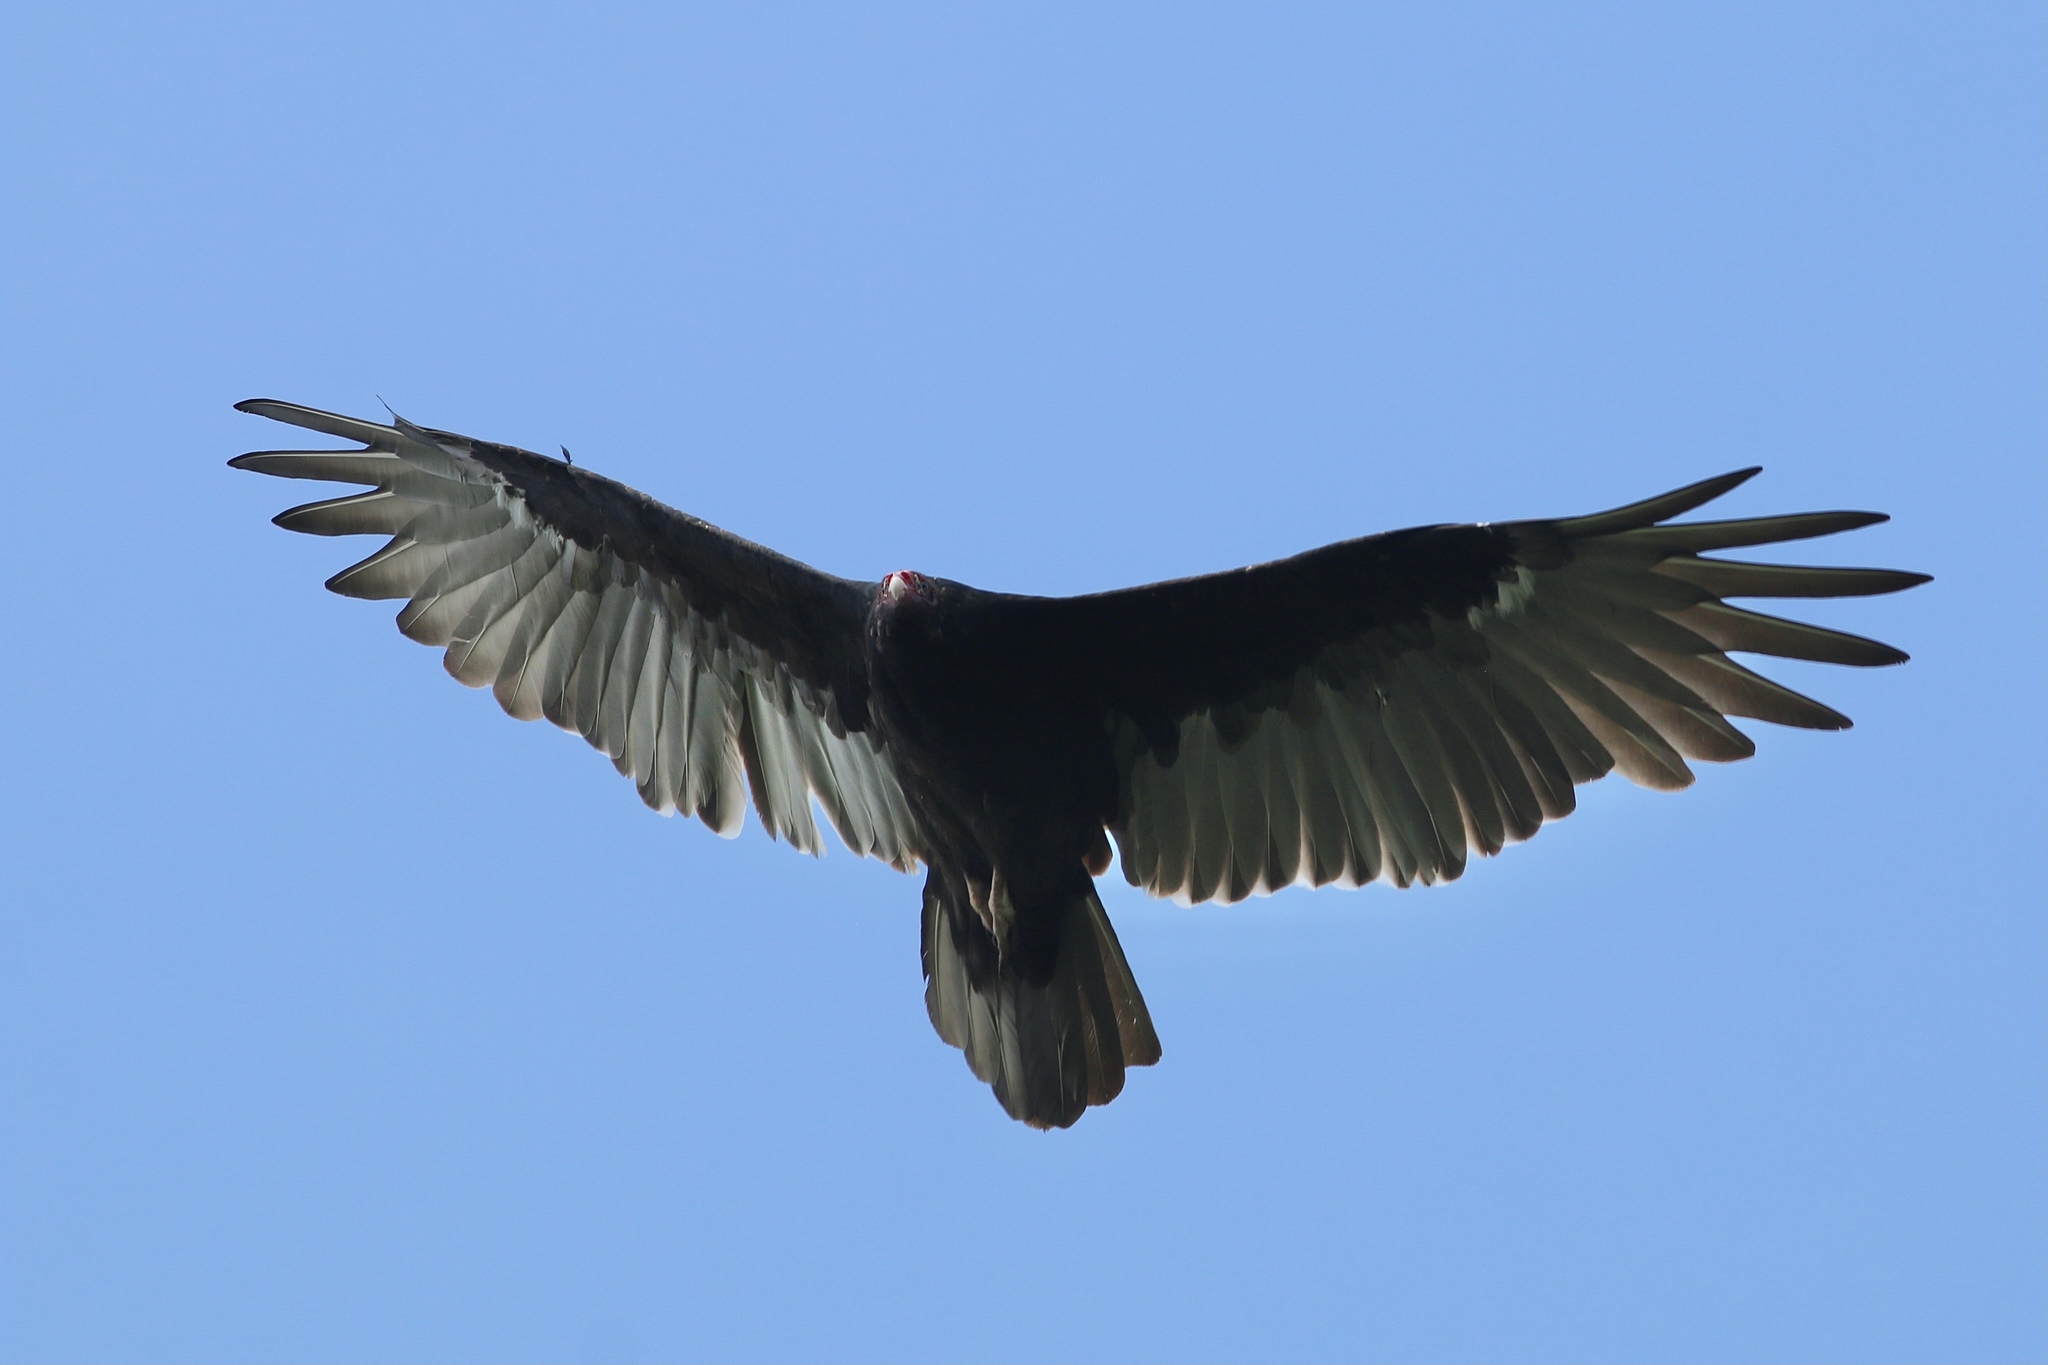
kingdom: Animalia
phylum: Chordata
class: Aves
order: Accipitriformes
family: Cathartidae
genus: Cathartes
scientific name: Cathartes aura
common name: Turkey vulture
